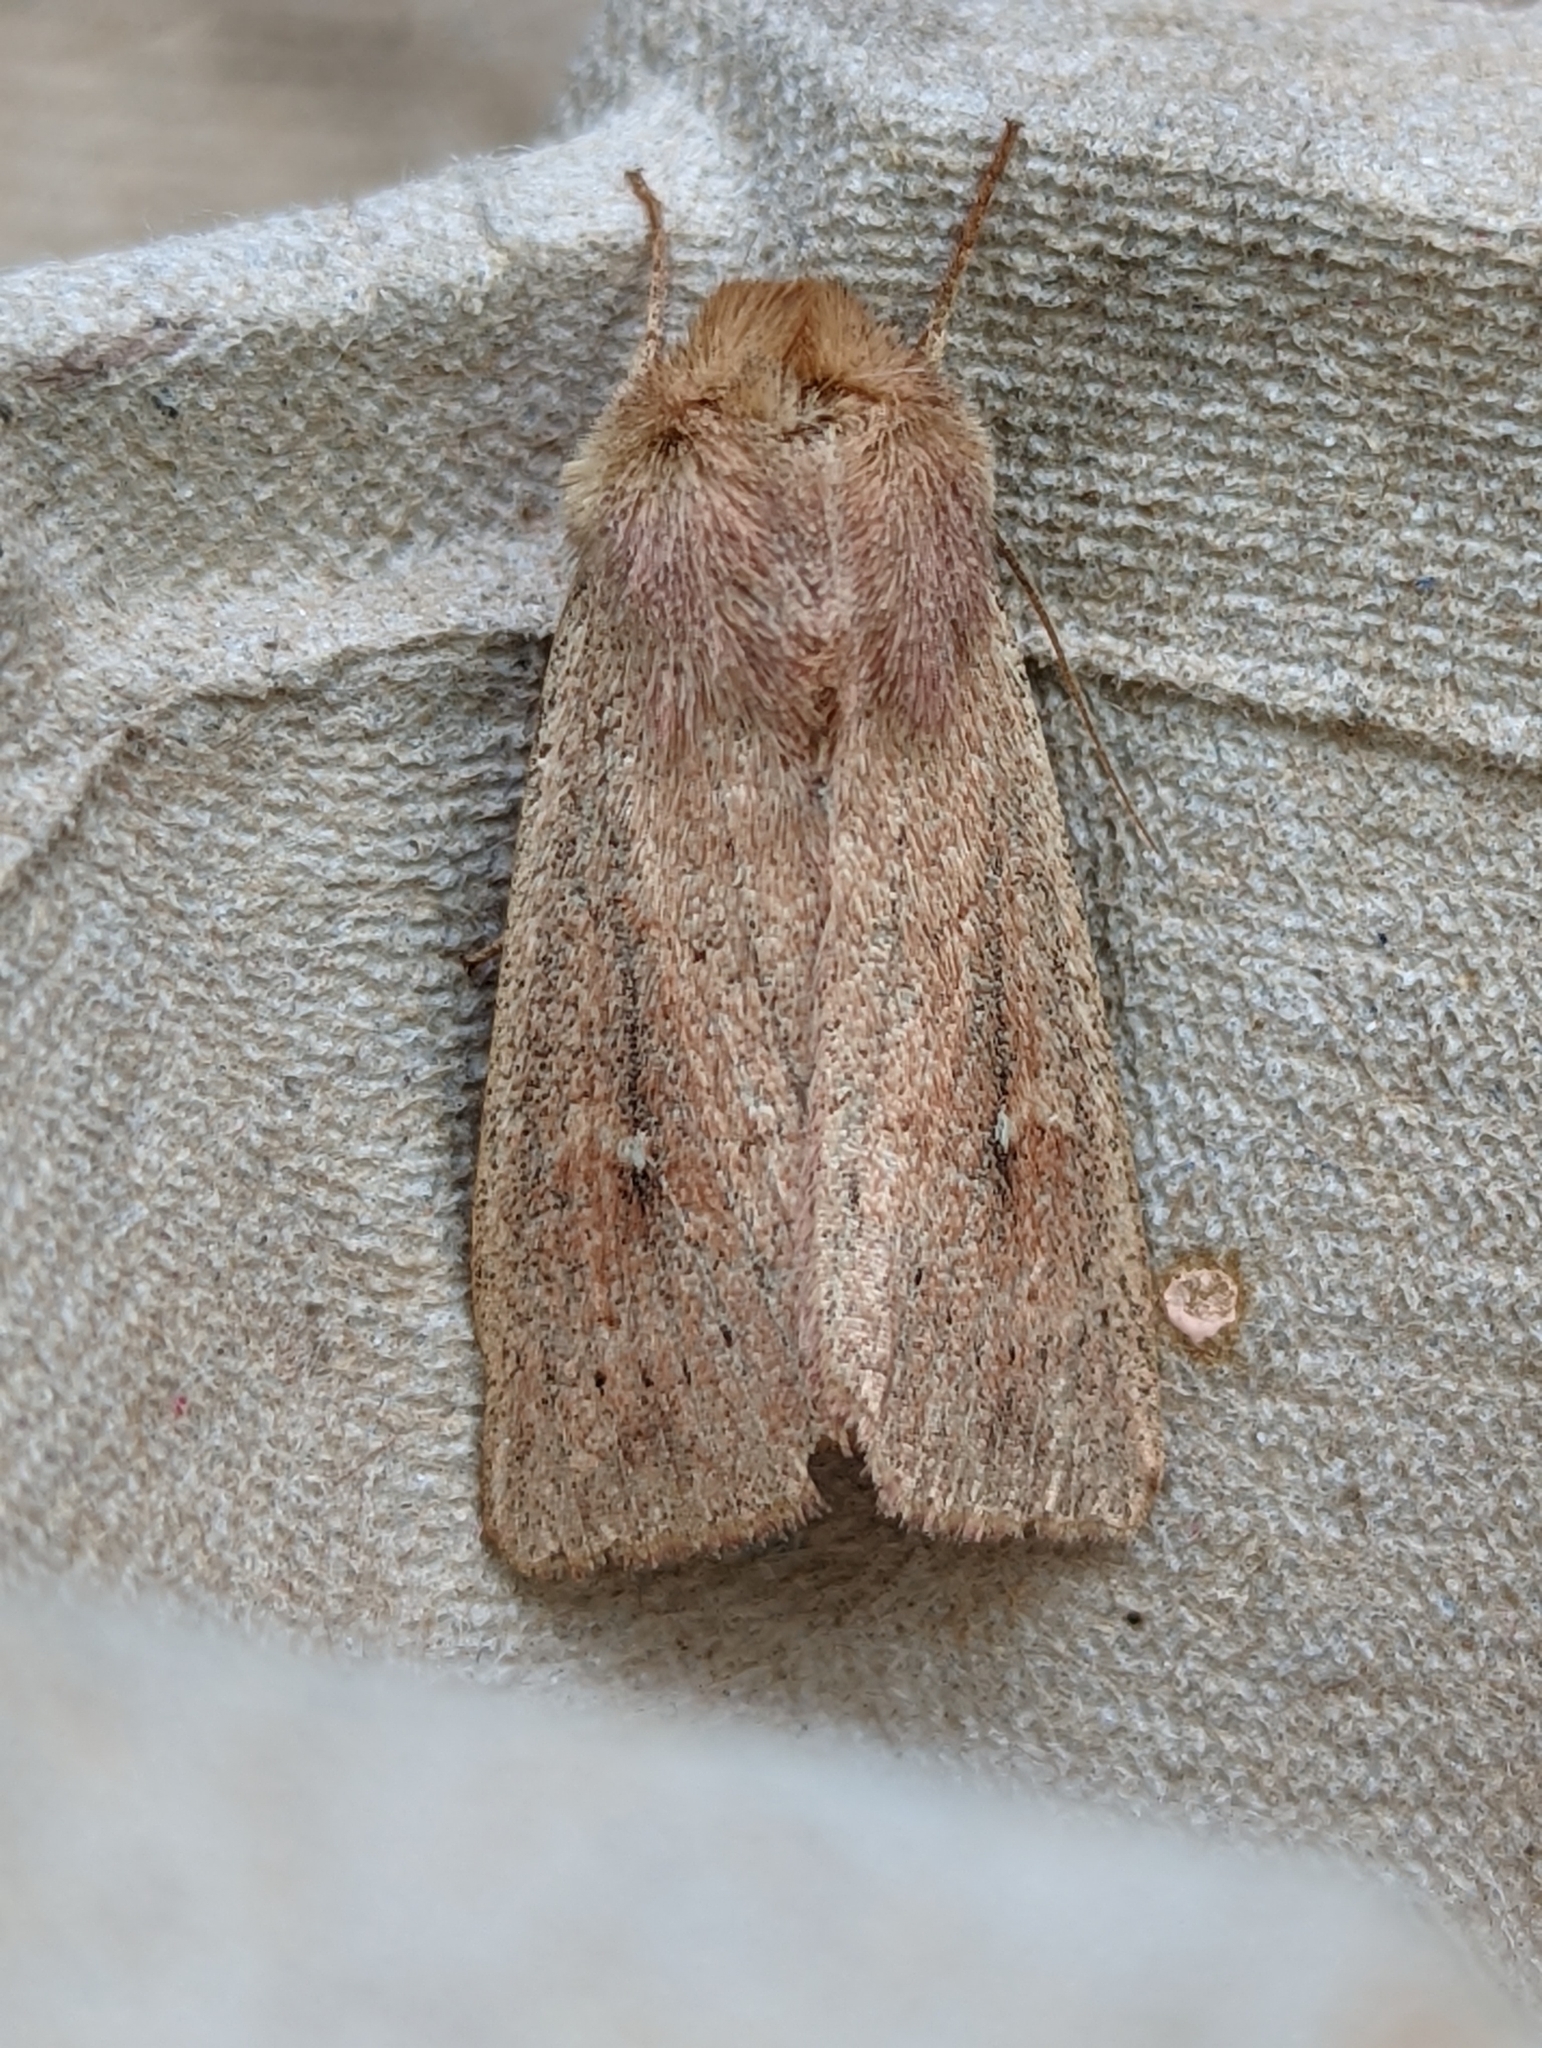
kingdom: Animalia
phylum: Arthropoda
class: Insecta
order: Lepidoptera
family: Noctuidae
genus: Mythimna
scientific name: Mythimna ferrago
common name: Clay
